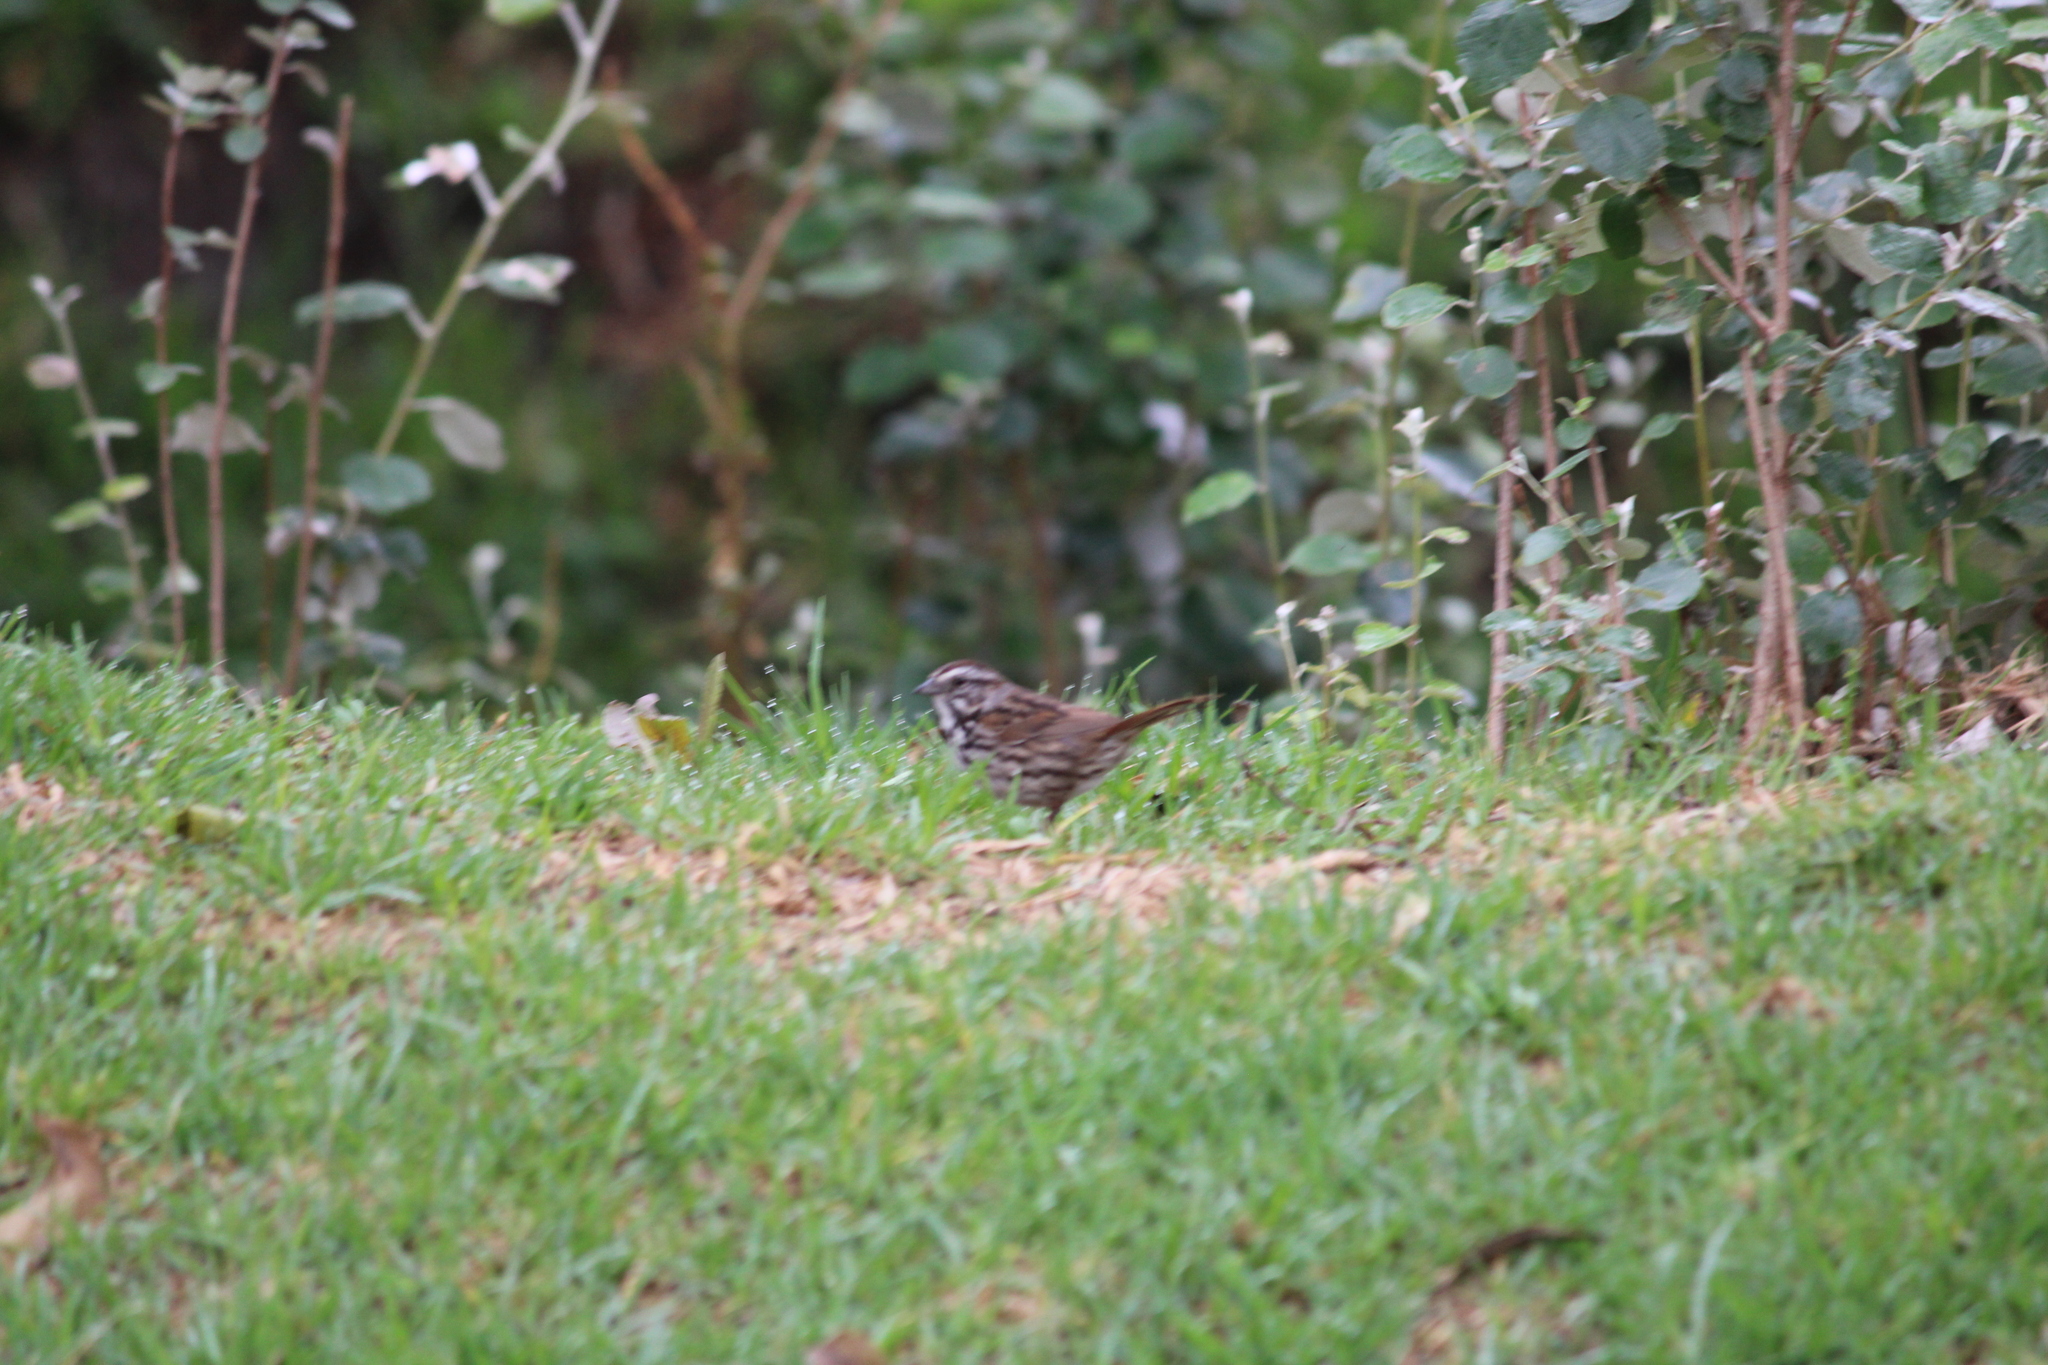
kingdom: Animalia
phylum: Chordata
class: Aves
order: Passeriformes
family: Passerellidae
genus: Melospiza
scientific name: Melospiza melodia
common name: Song sparrow
